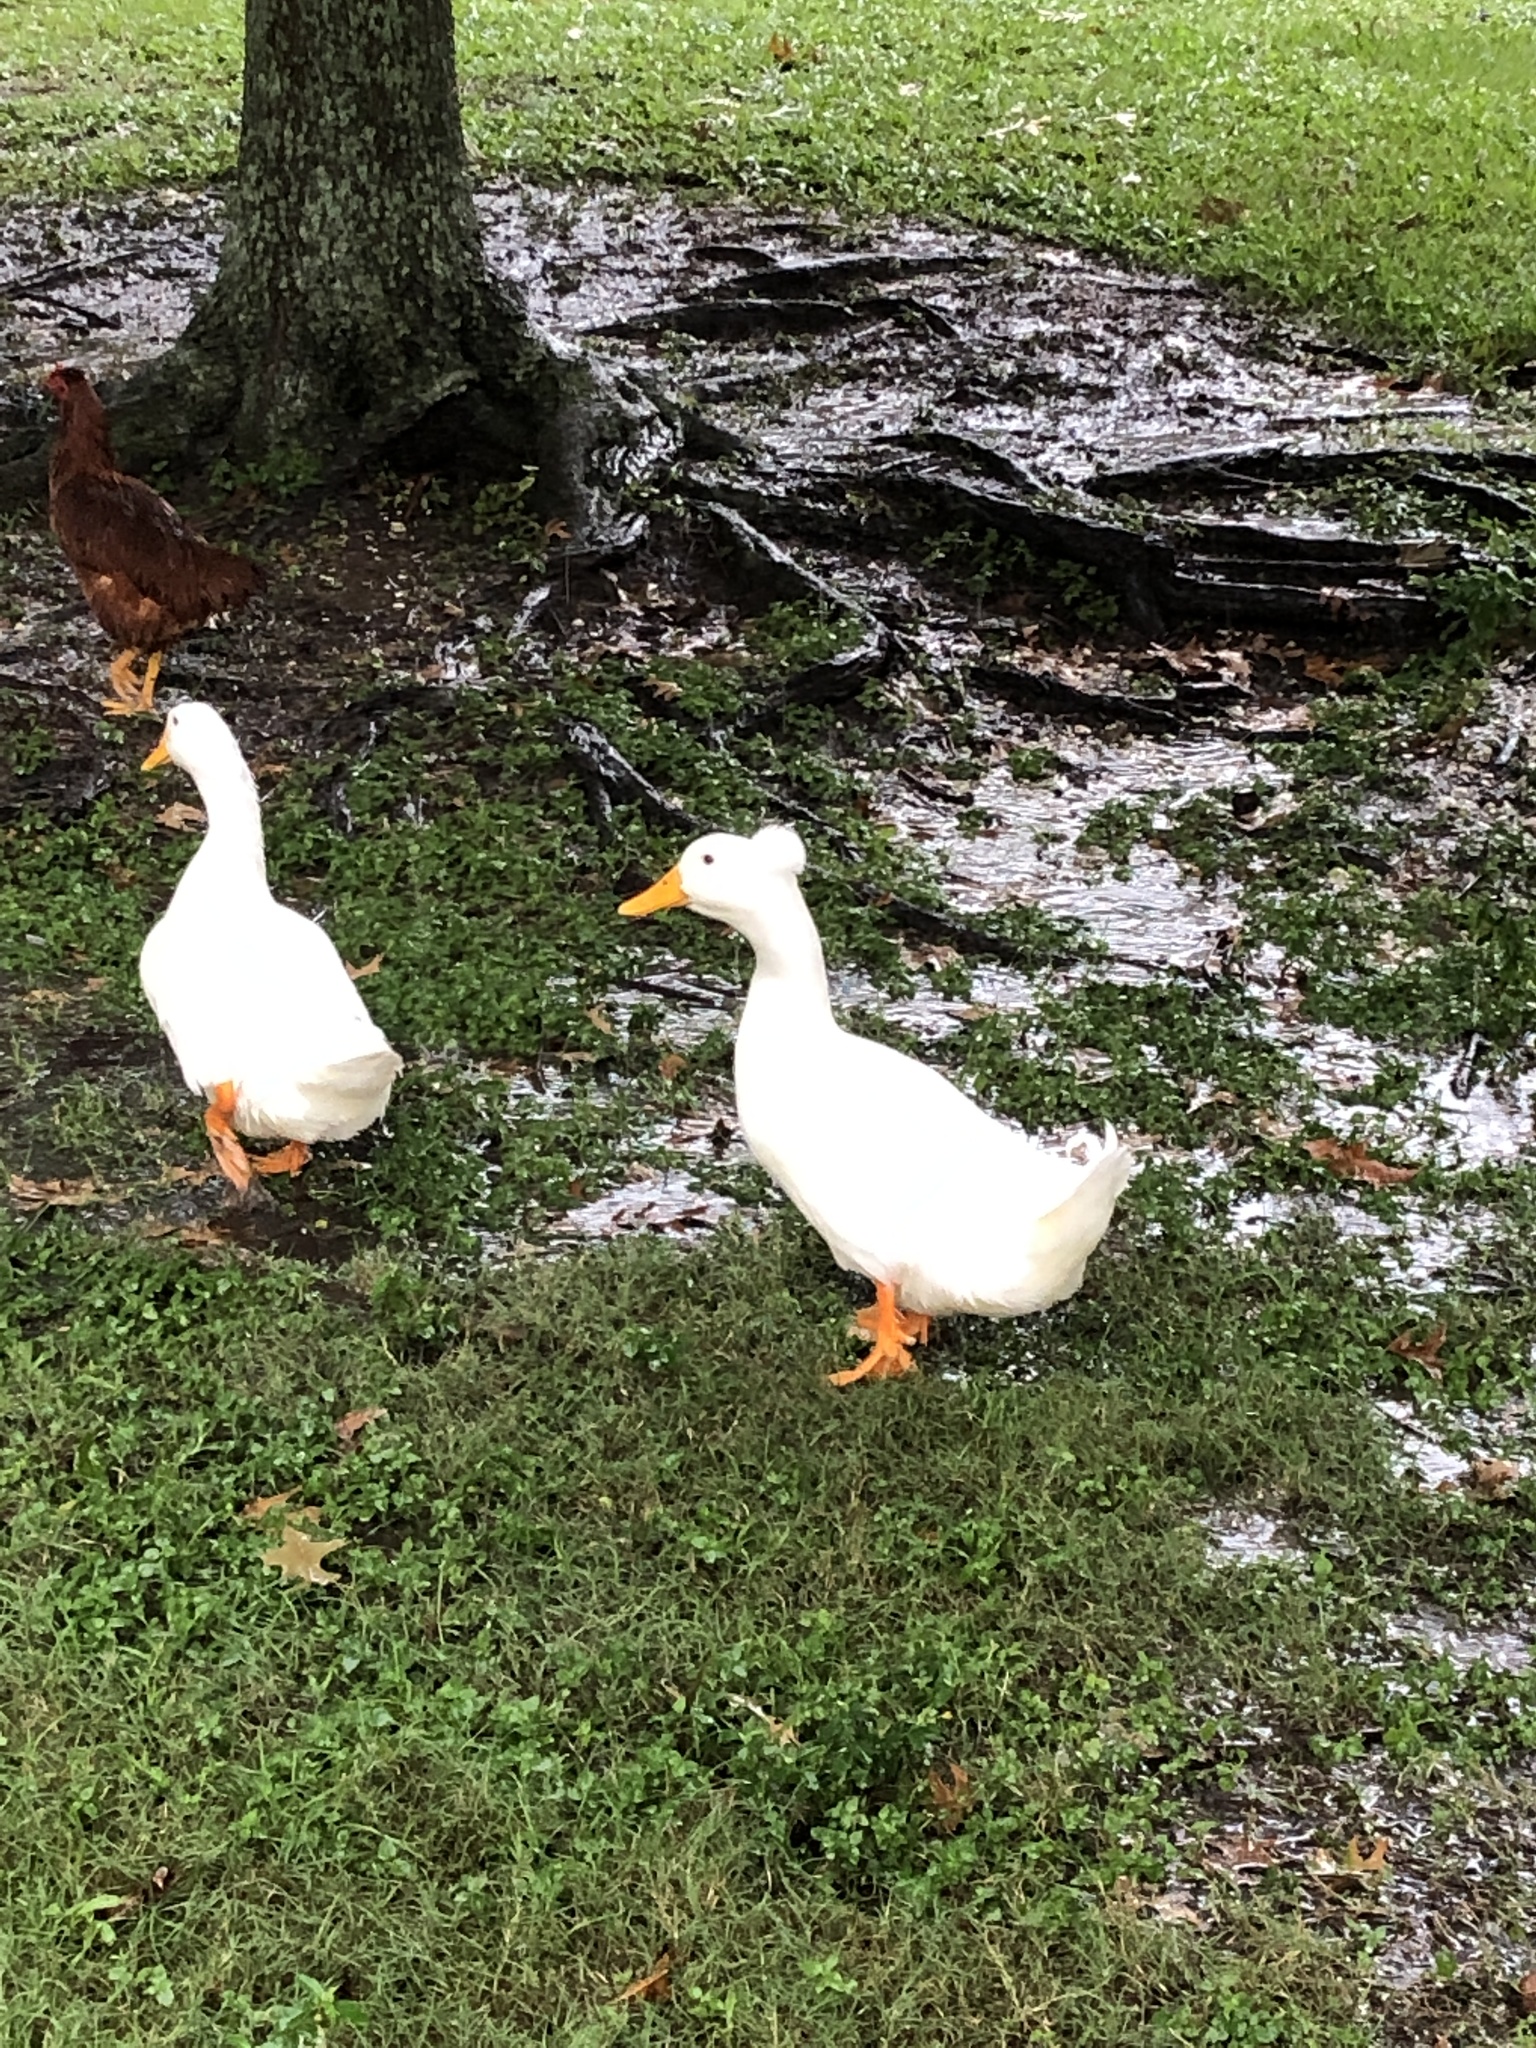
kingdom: Animalia
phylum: Chordata
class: Aves
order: Anseriformes
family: Anatidae
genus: Anas
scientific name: Anas platyrhynchos
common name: Mallard
